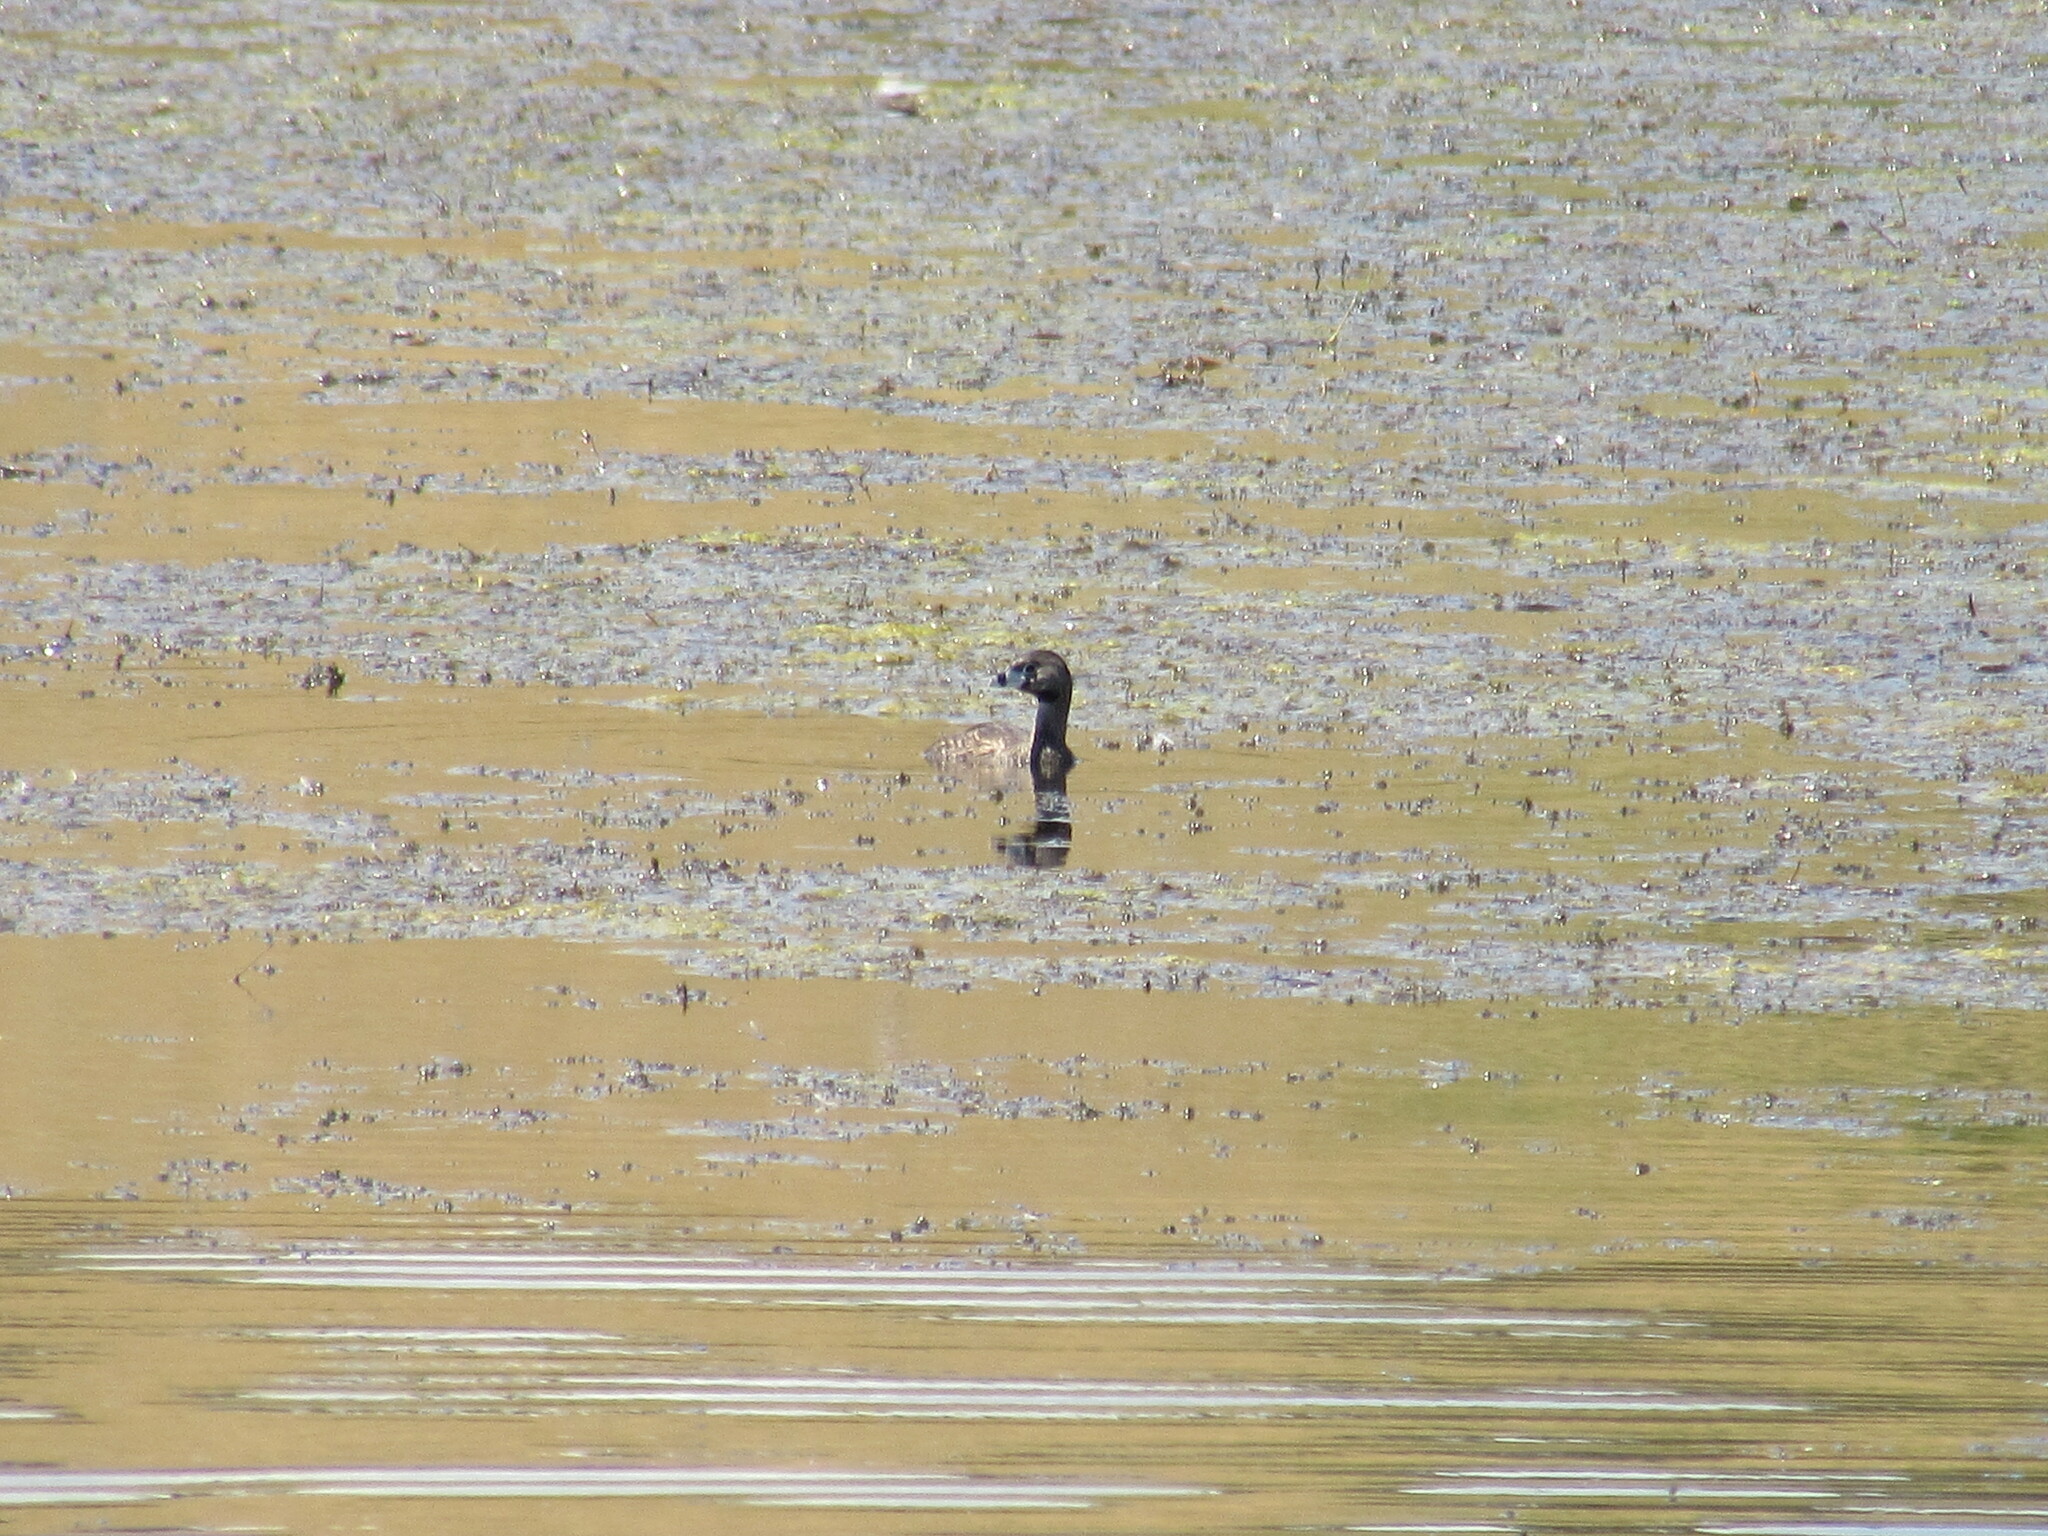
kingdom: Animalia
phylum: Chordata
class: Aves
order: Podicipediformes
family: Podicipedidae
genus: Podilymbus
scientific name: Podilymbus podiceps
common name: Pied-billed grebe
